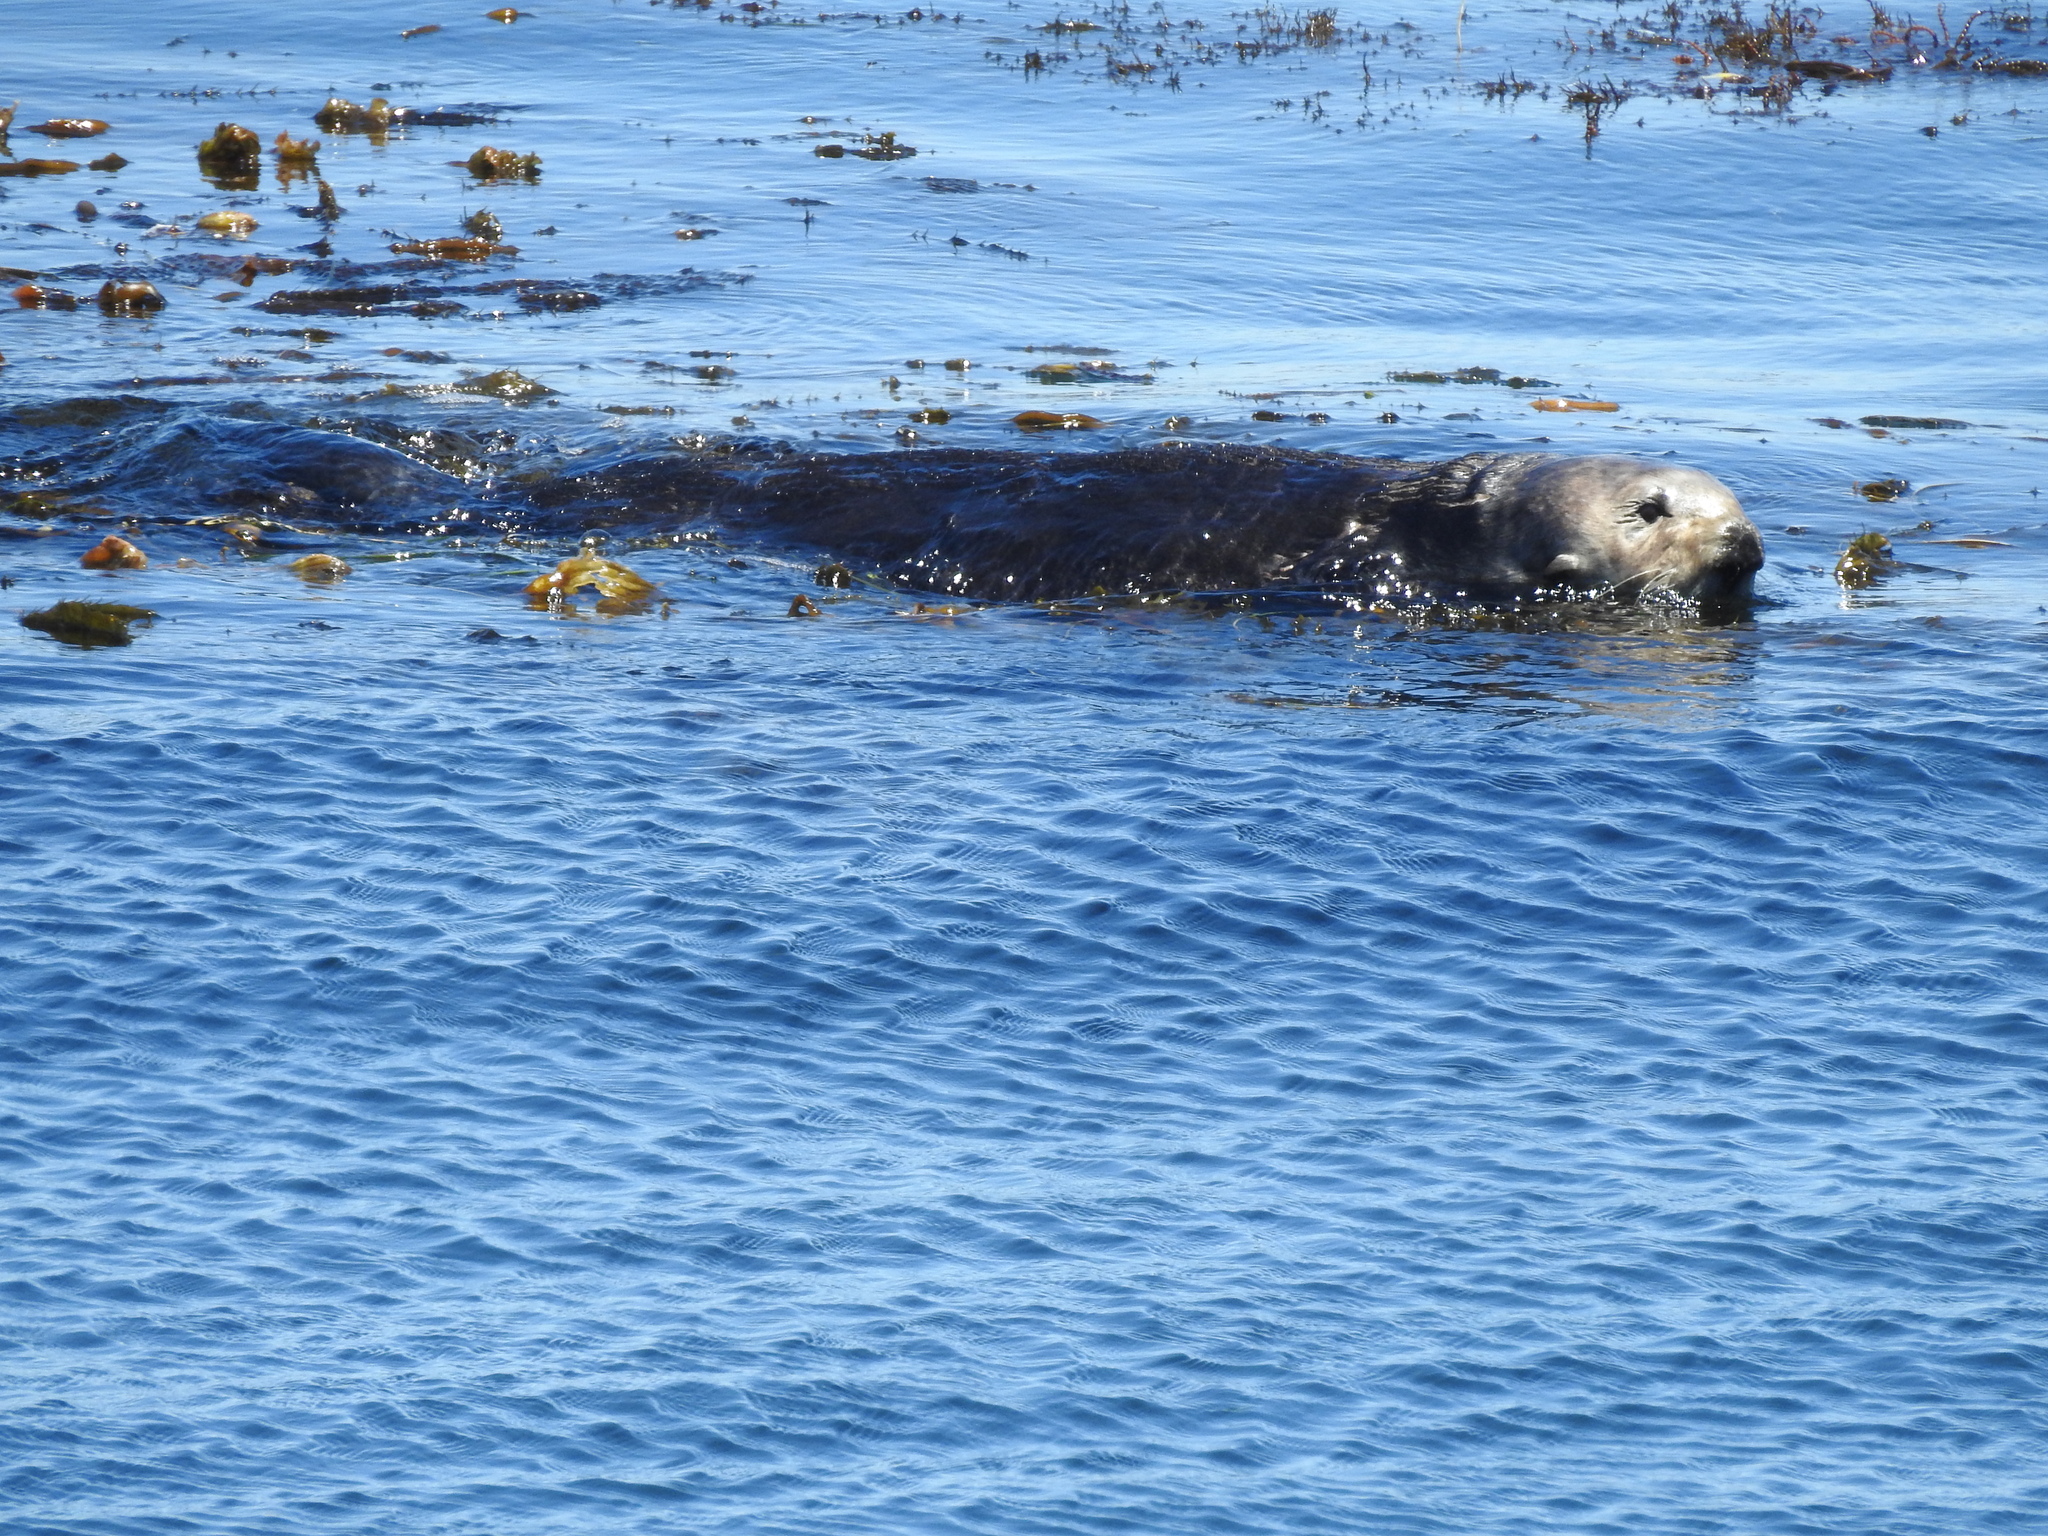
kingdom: Animalia
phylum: Chordata
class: Mammalia
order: Carnivora
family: Mustelidae
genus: Enhydra
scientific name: Enhydra lutris
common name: Sea otter
